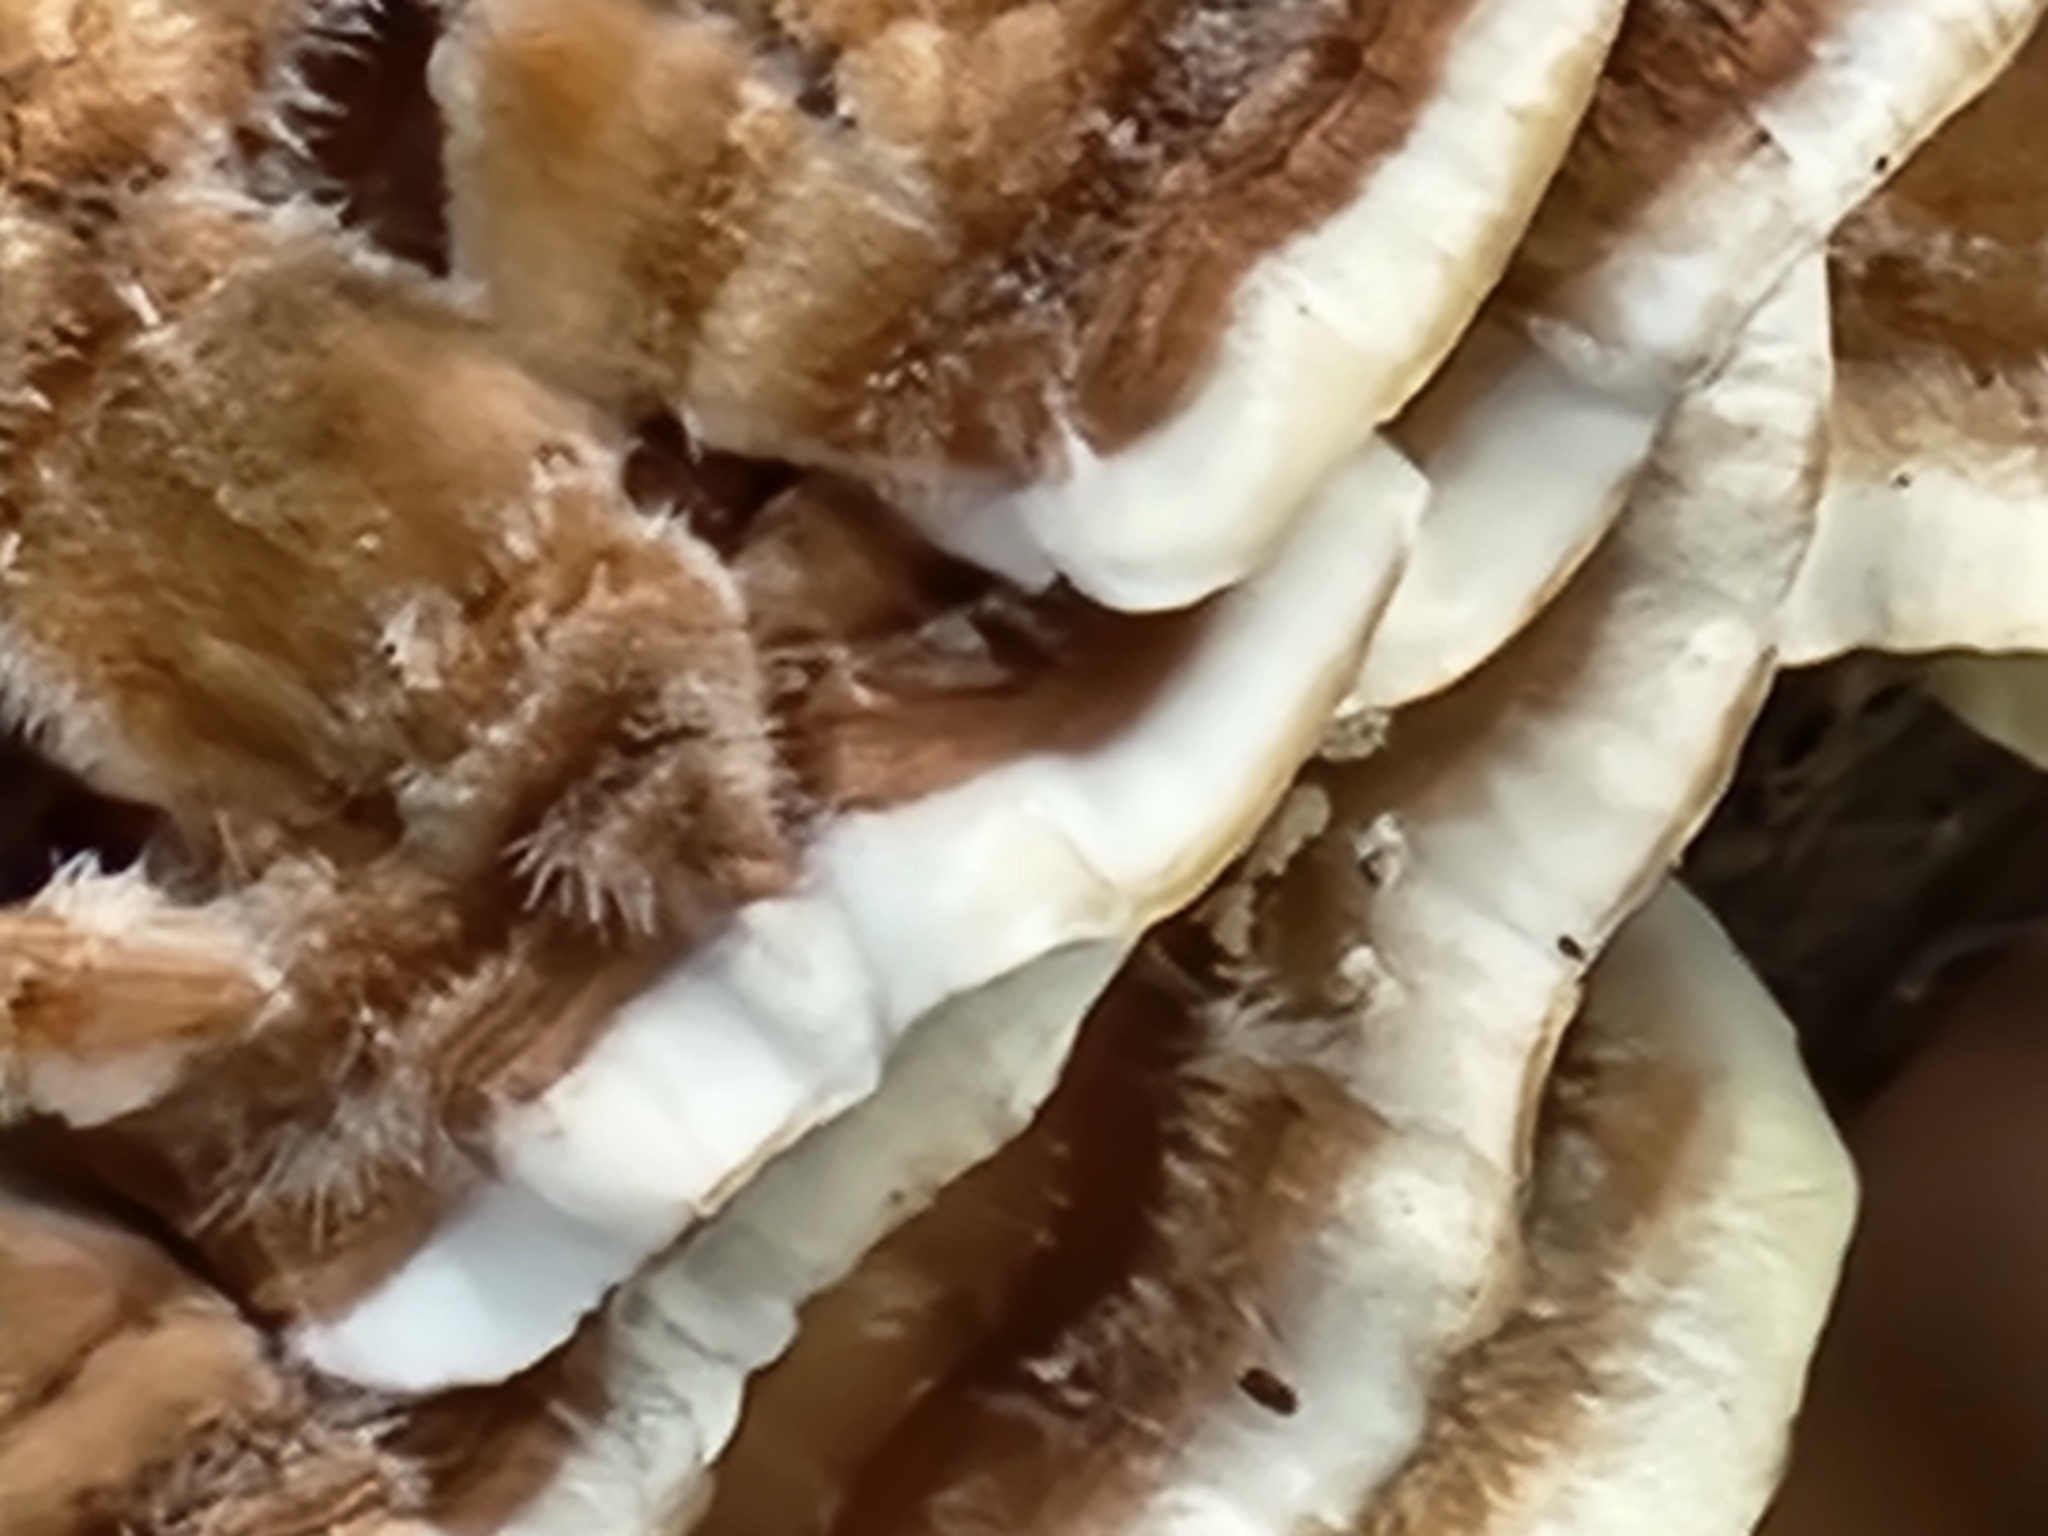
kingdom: Fungi
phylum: Basidiomycota
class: Agaricomycetes
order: Polyporales
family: Polyporaceae
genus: Trametes
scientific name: Trametes versicolor
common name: Turkeytail
